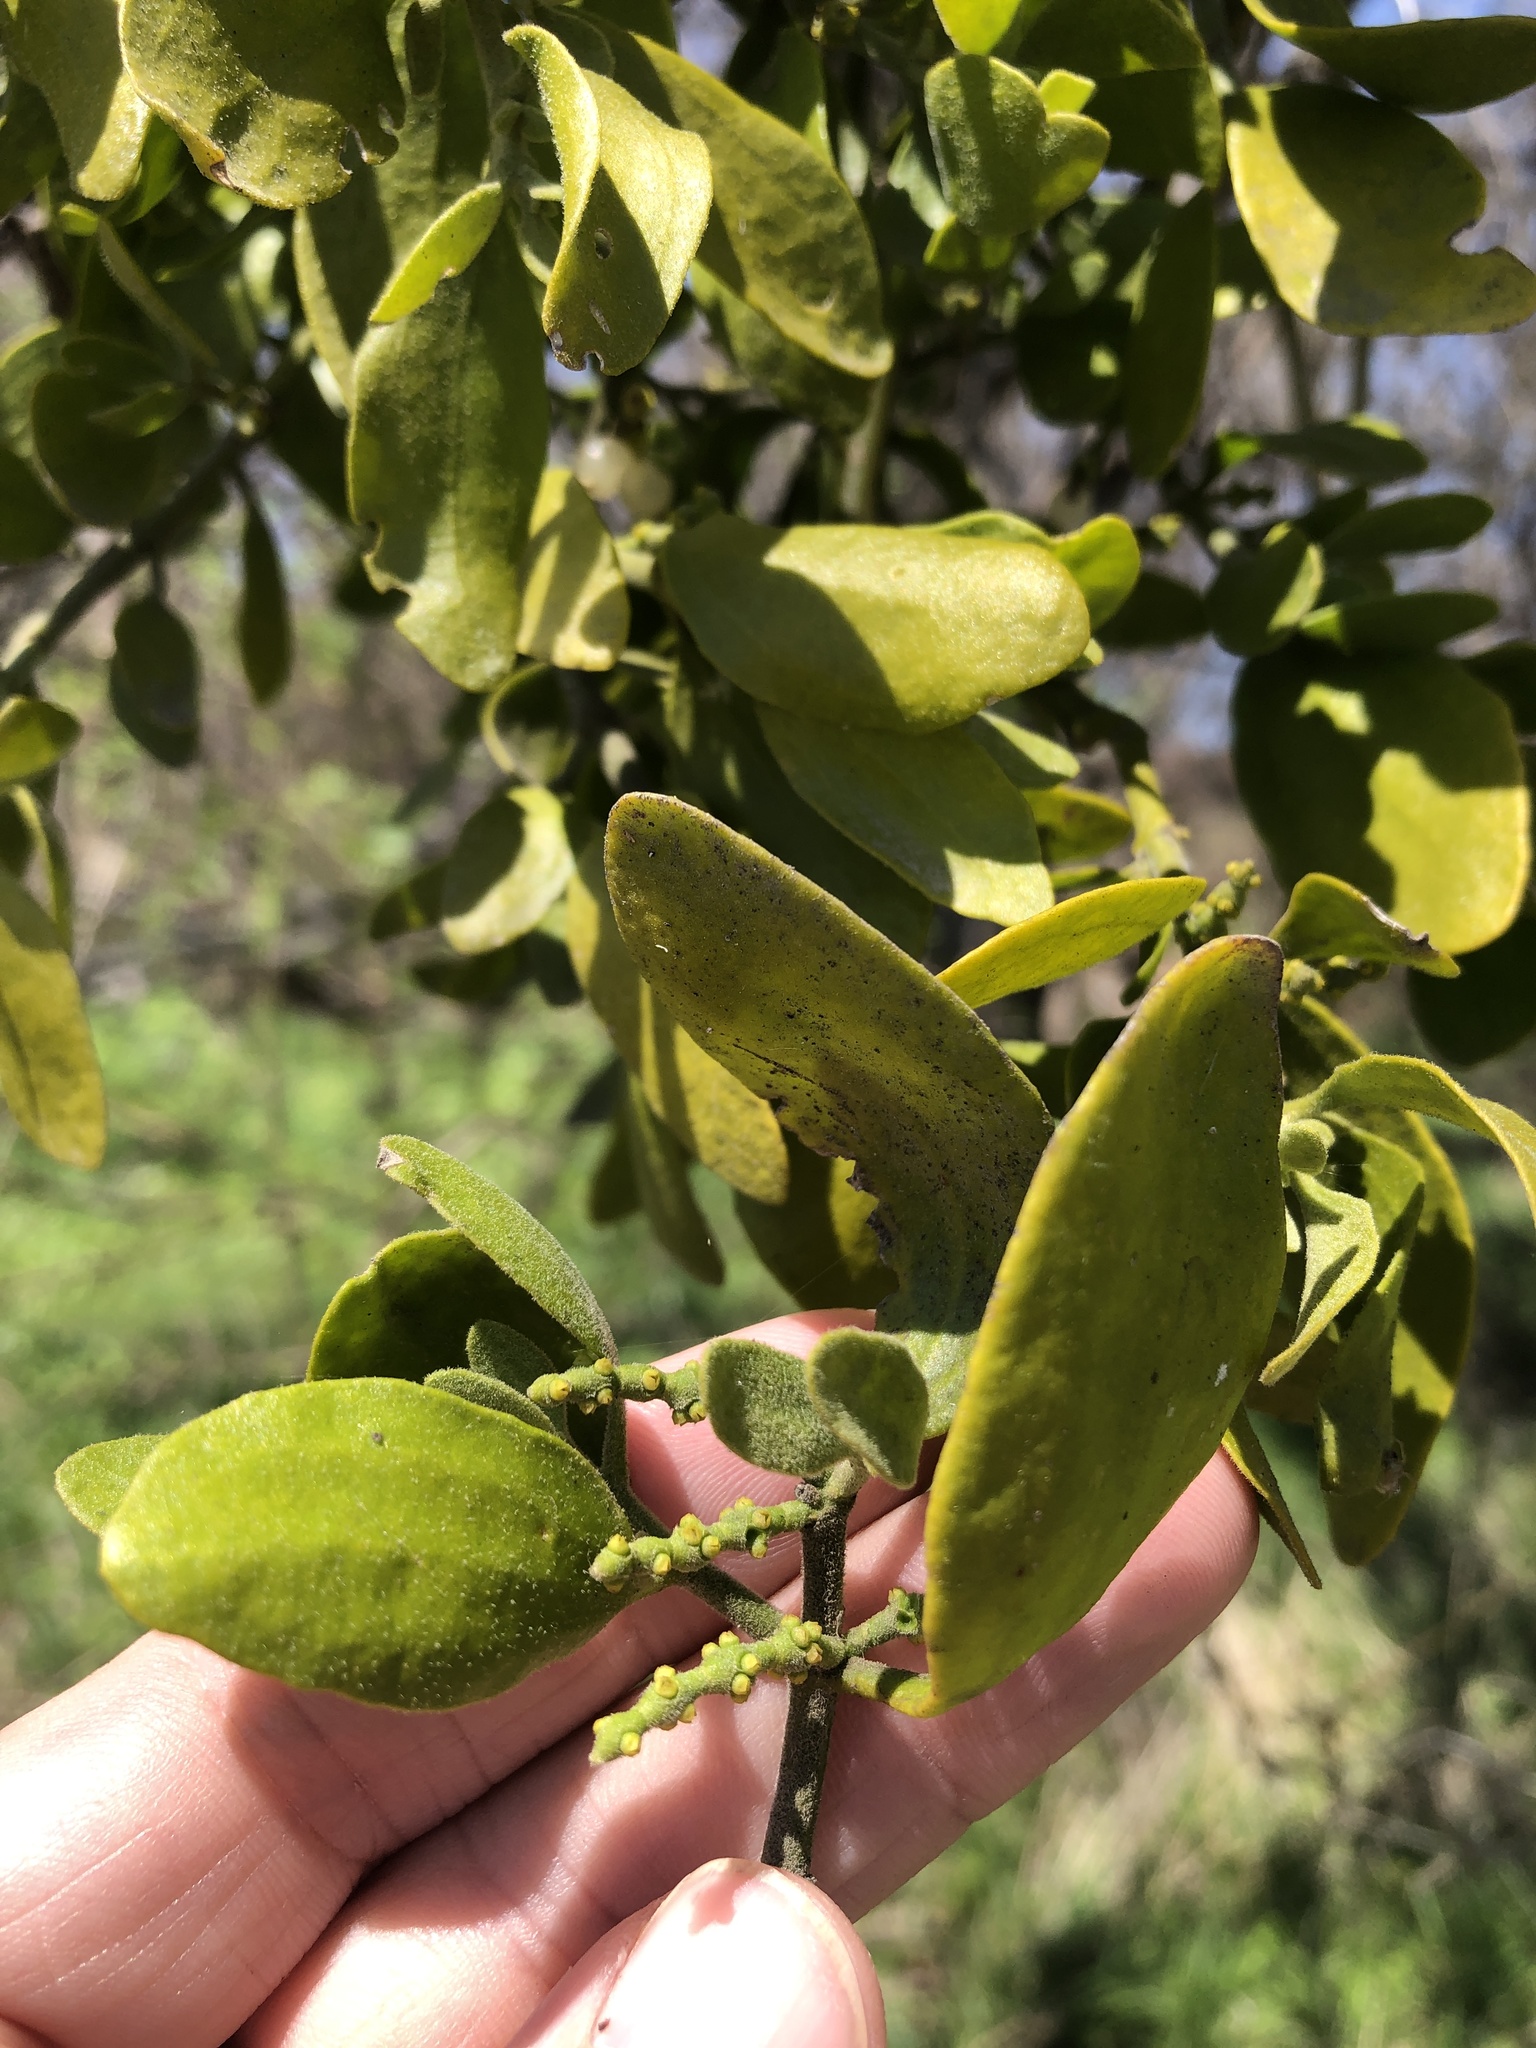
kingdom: Plantae
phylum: Tracheophyta
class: Magnoliopsida
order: Santalales
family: Viscaceae
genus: Phoradendron
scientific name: Phoradendron leucarpum
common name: Pacific mistletoe
